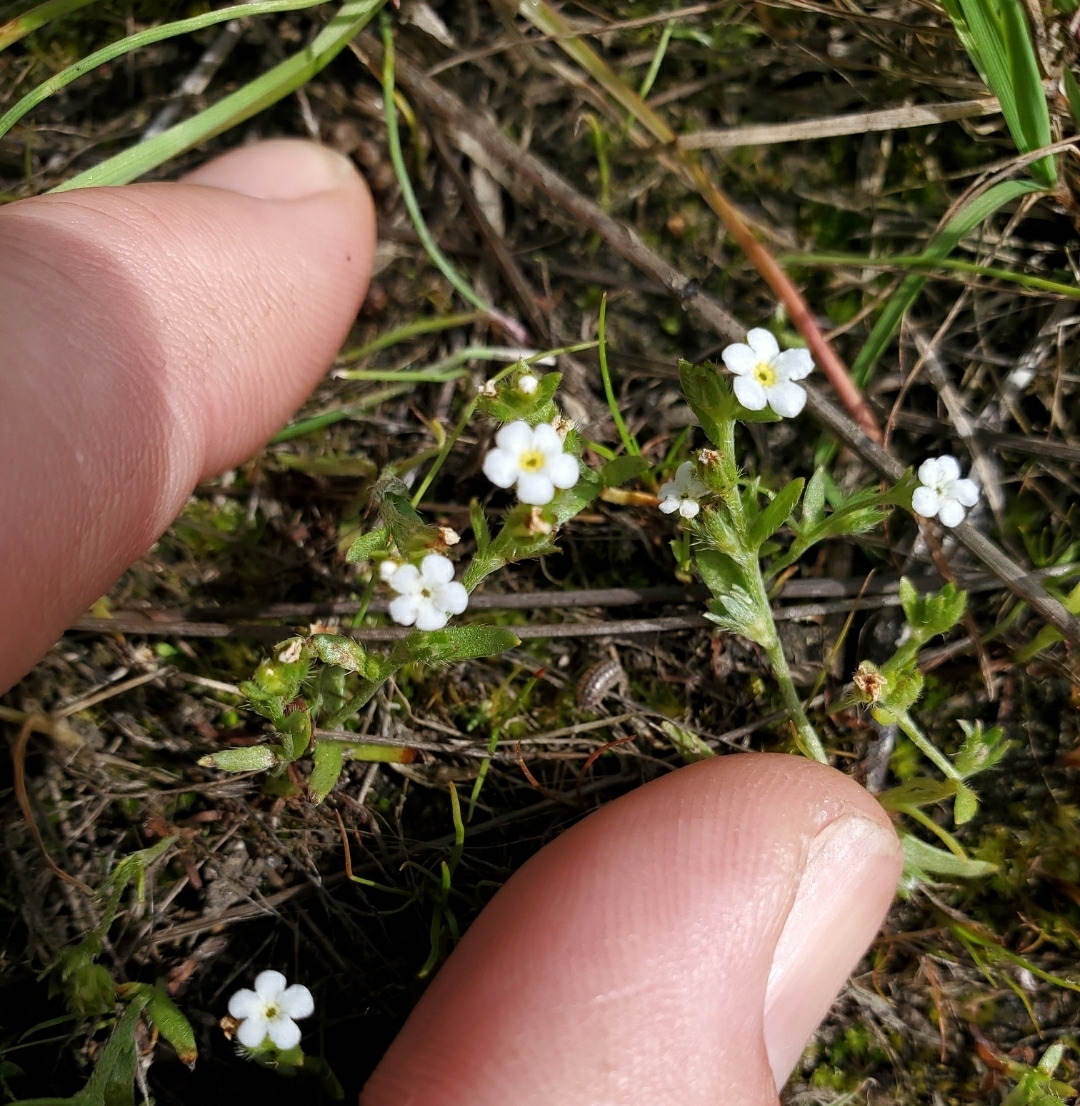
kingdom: Plantae
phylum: Tracheophyta
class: Magnoliopsida
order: Boraginales
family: Boraginaceae
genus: Plagiobothrys
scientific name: Plagiobothrys scouleri
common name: White forget-me-not
